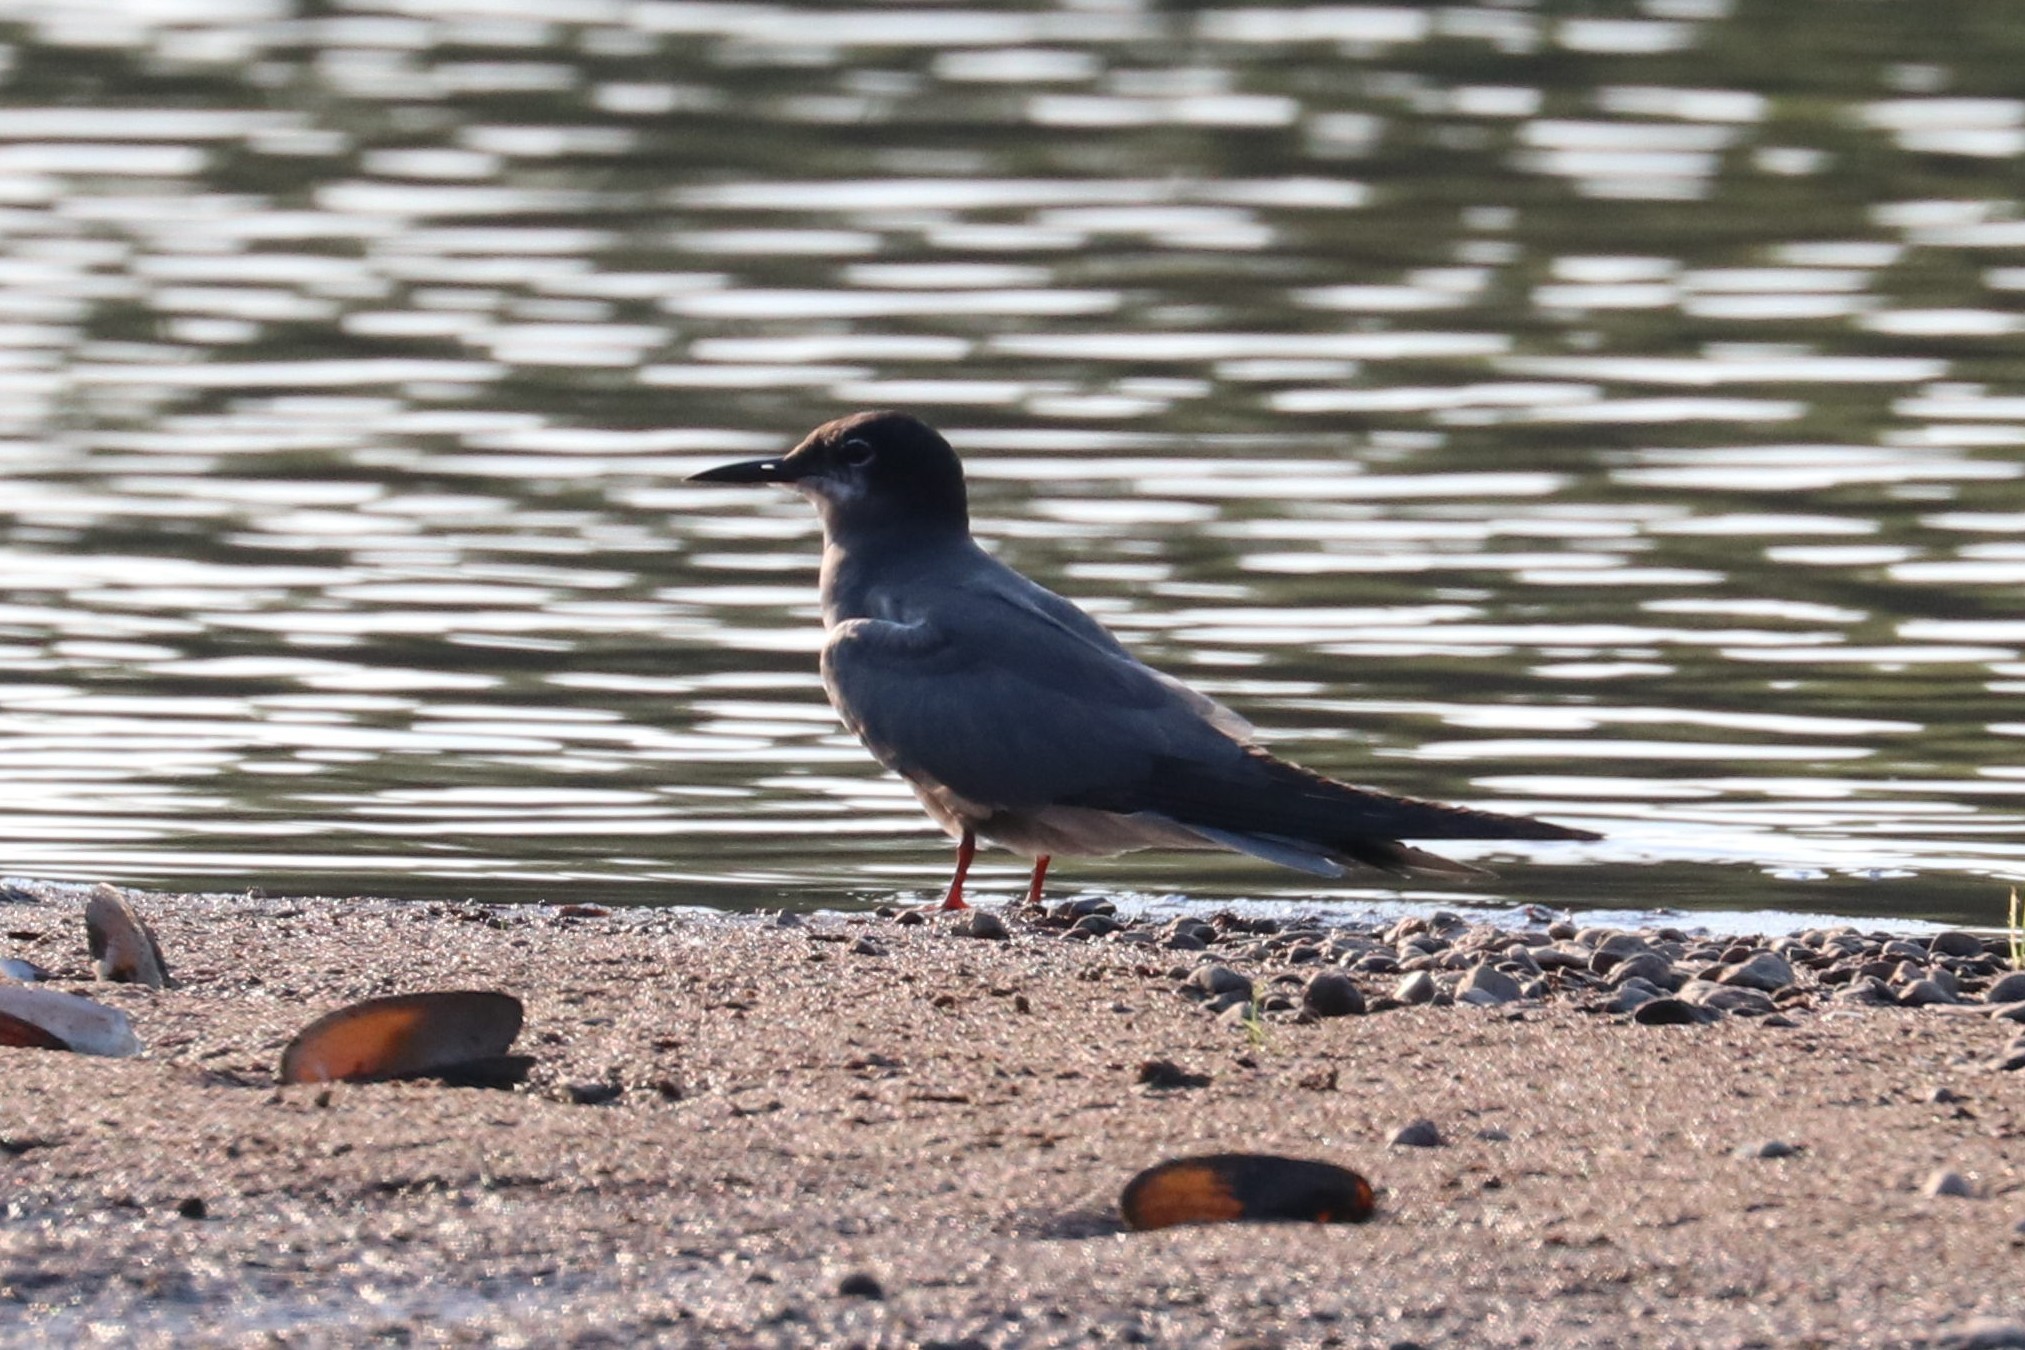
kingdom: Animalia
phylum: Chordata
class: Aves
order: Charadriiformes
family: Laridae
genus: Chlidonias
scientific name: Chlidonias niger
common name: Black tern
